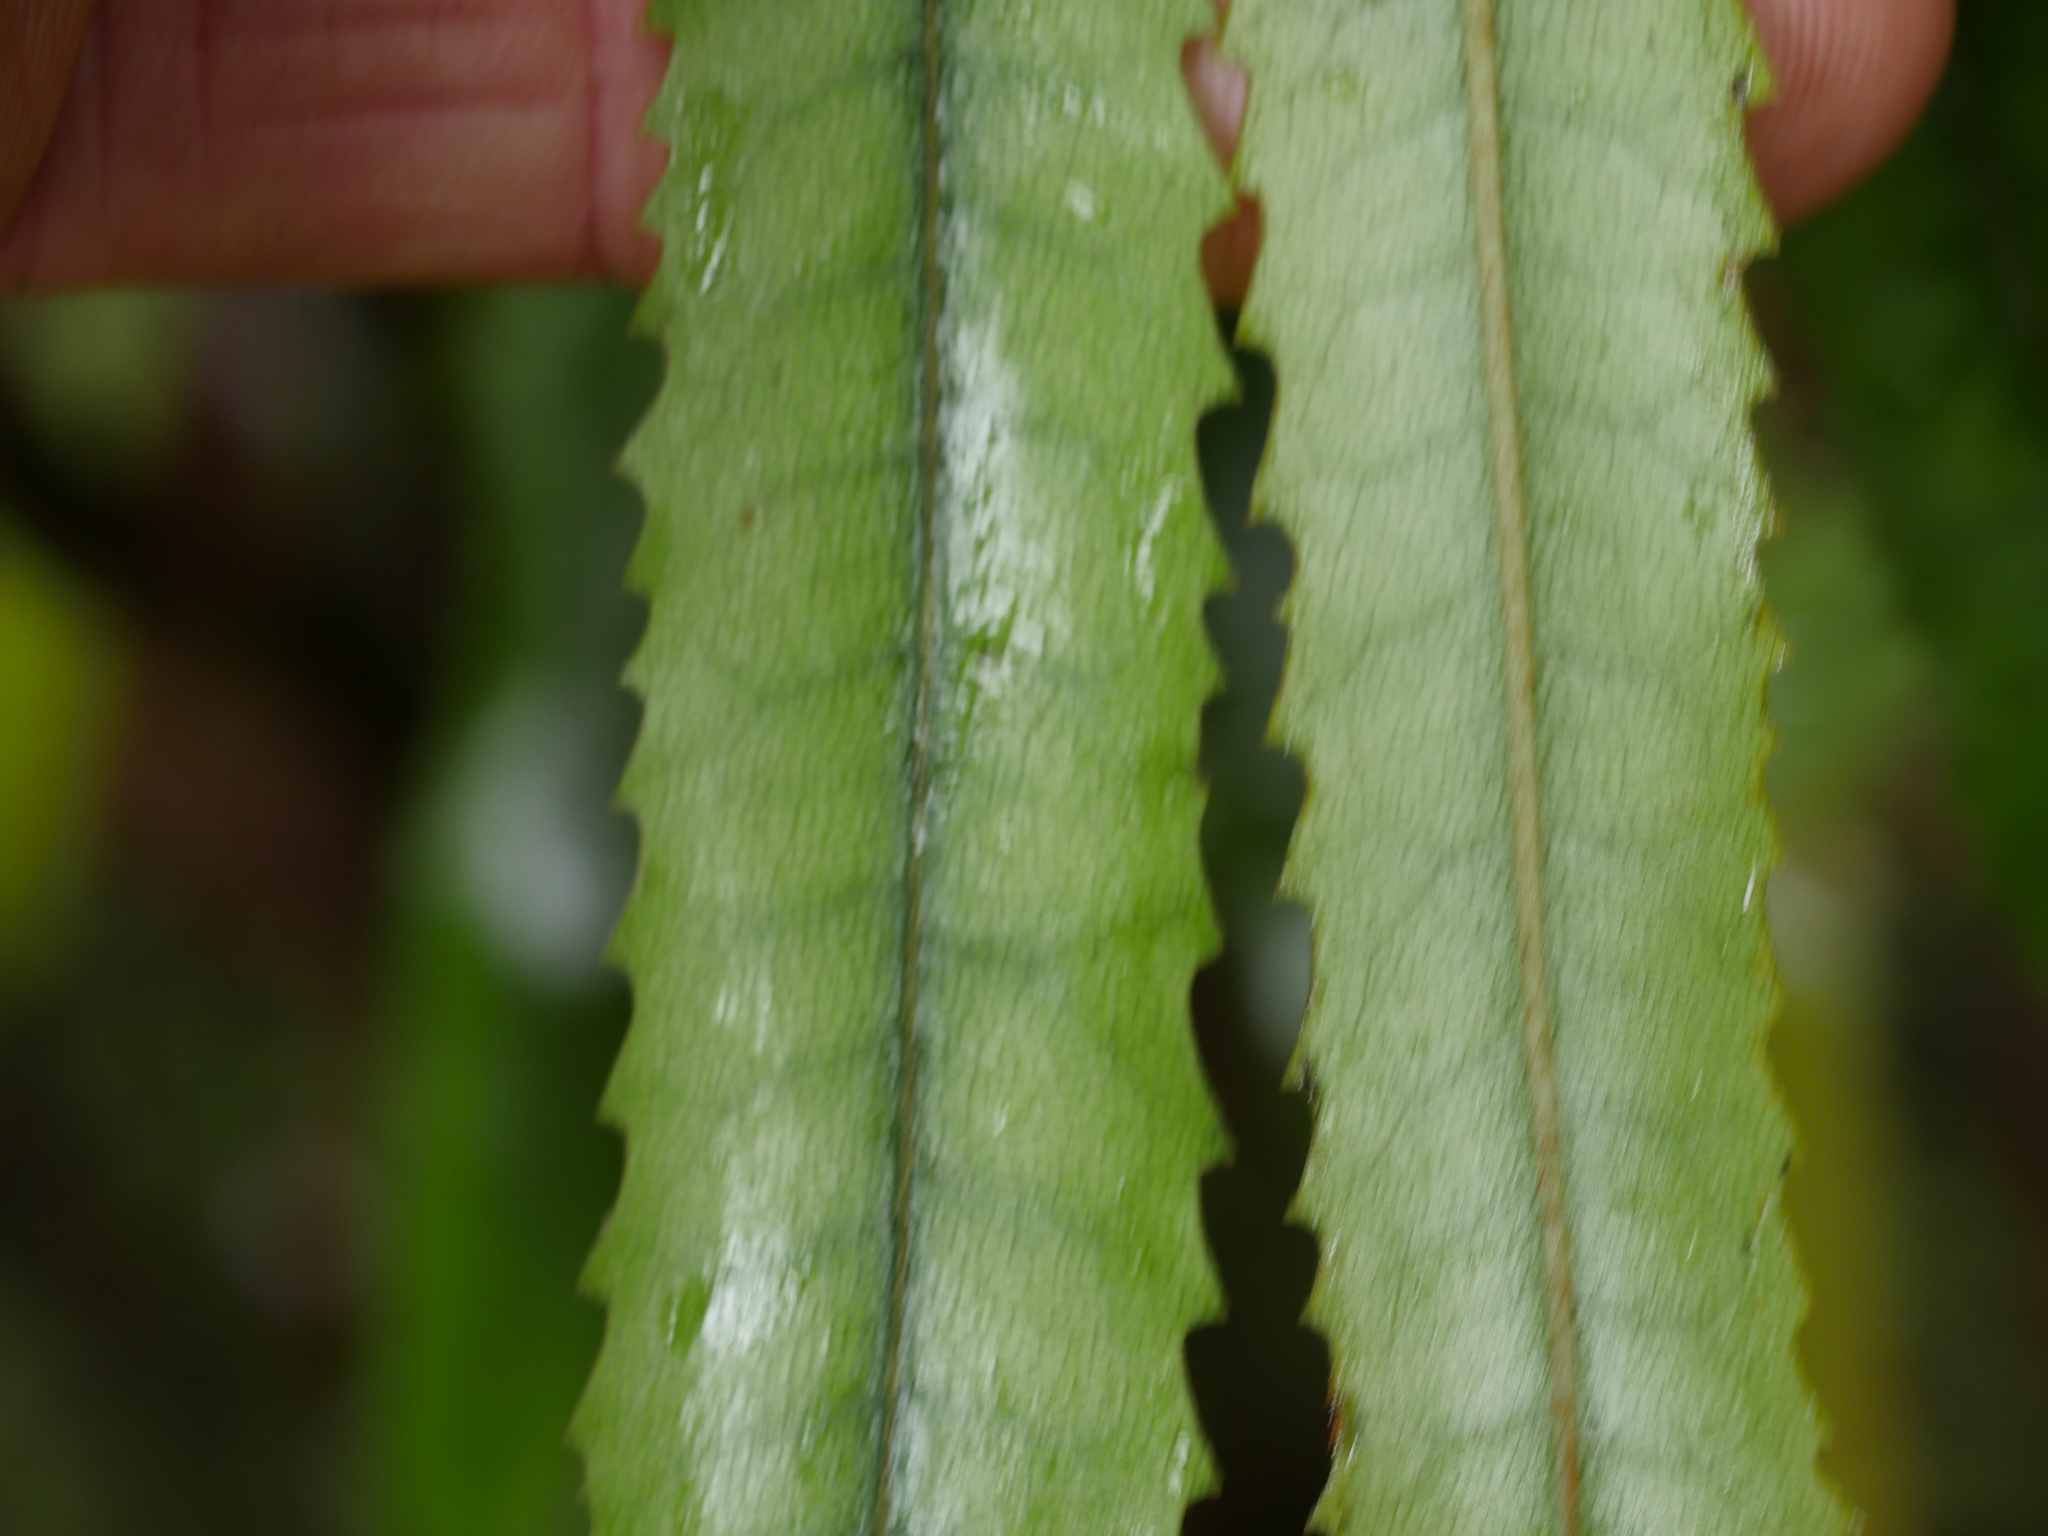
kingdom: Plantae
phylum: Tracheophyta
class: Magnoliopsida
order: Proteales
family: Proteaceae
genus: Knightia
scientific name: Knightia excelsa
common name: New zealand-honeysuckle
